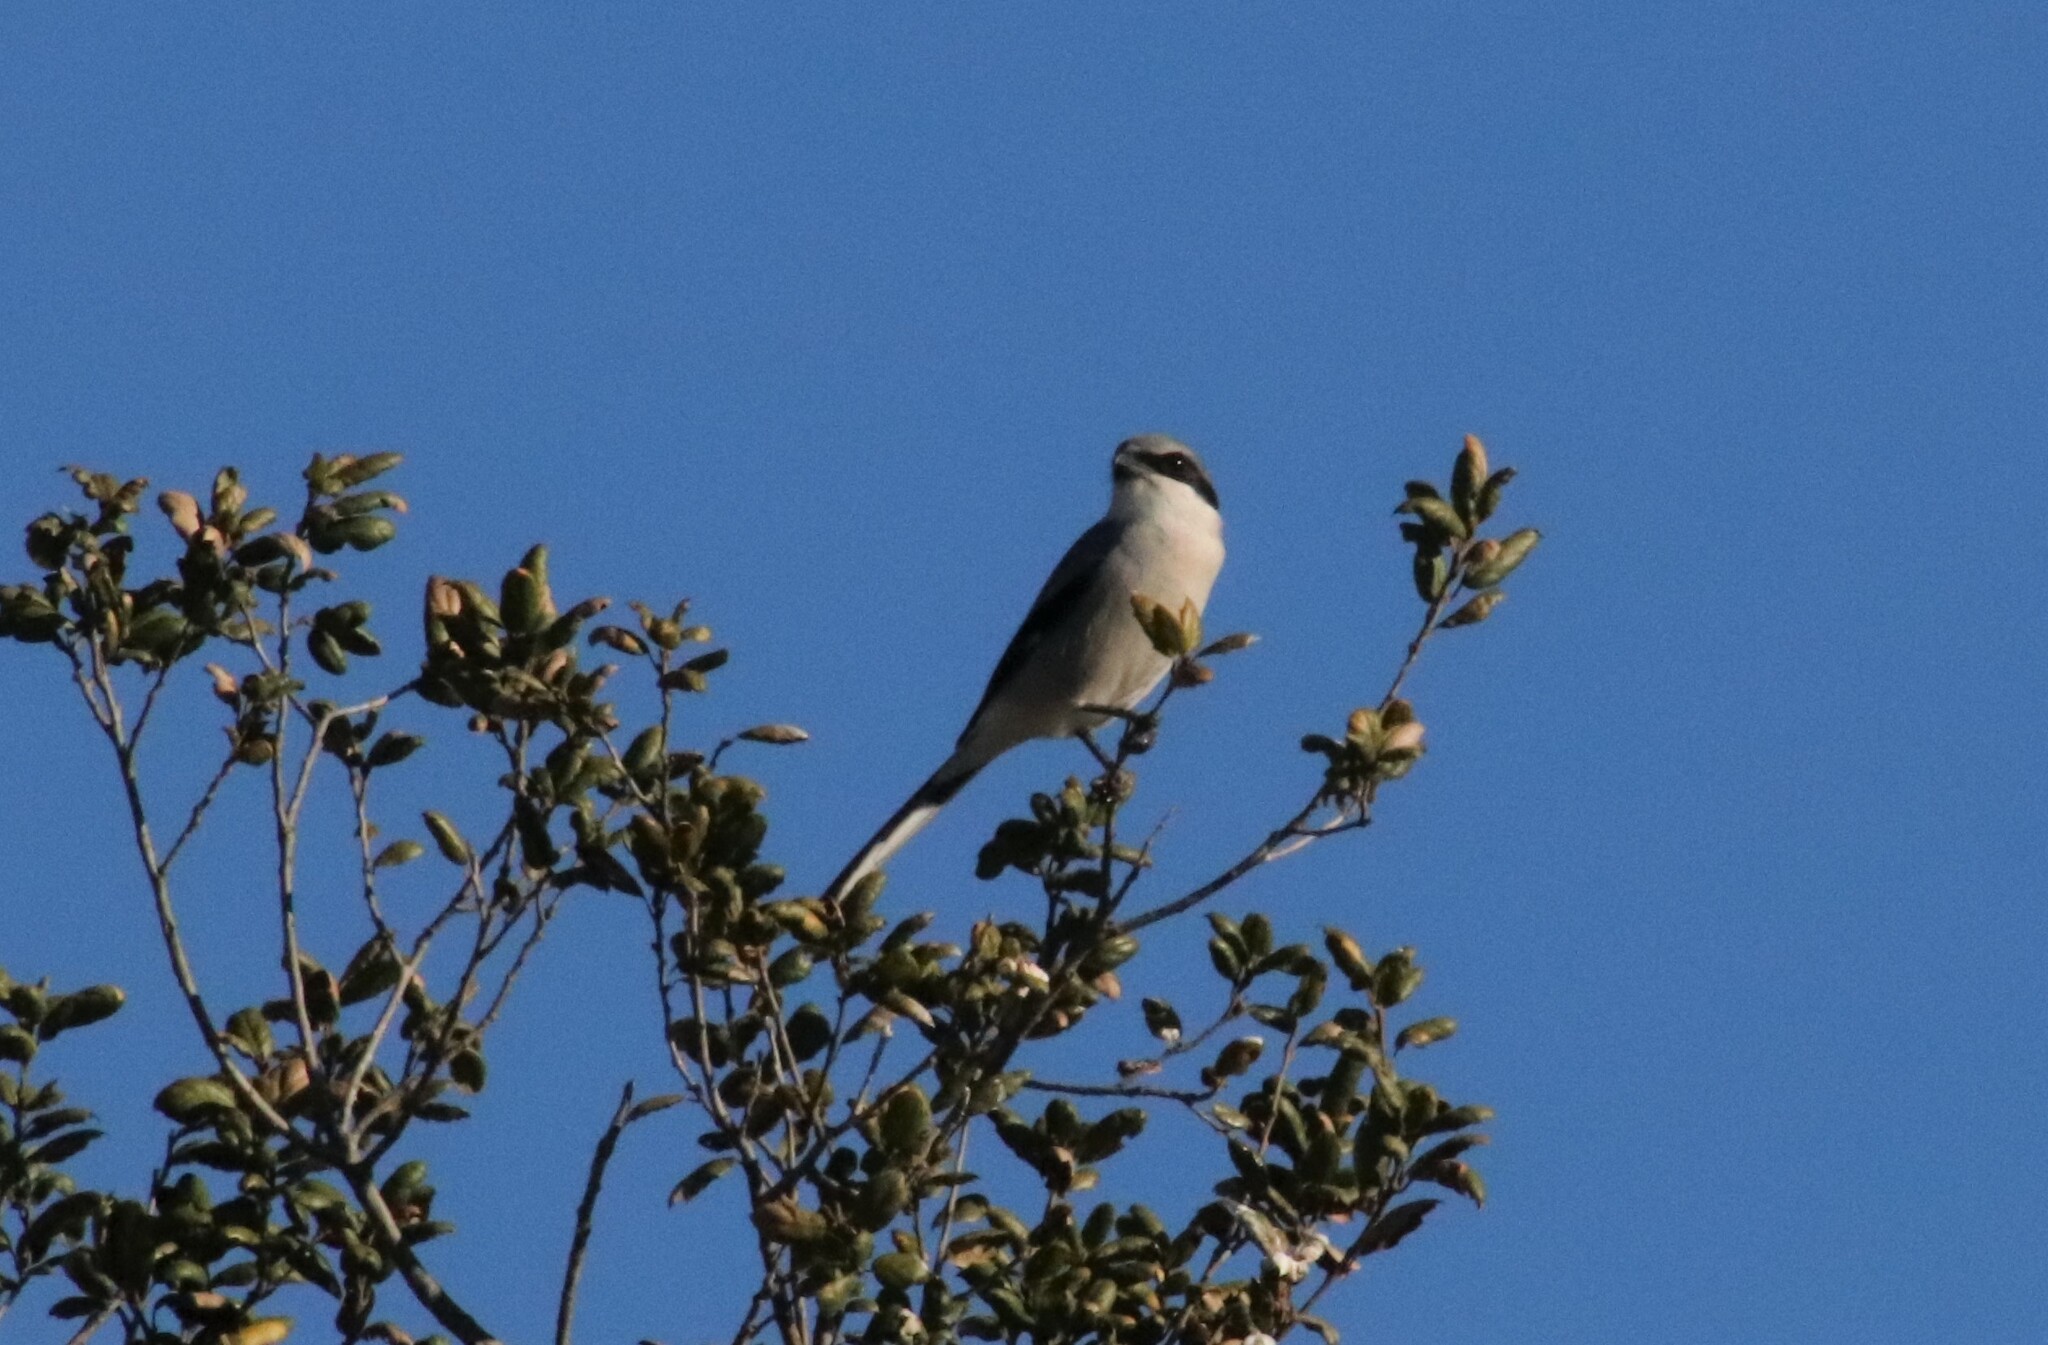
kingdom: Animalia
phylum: Chordata
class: Aves
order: Passeriformes
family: Laniidae
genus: Lanius
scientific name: Lanius ludovicianus
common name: Loggerhead shrike
